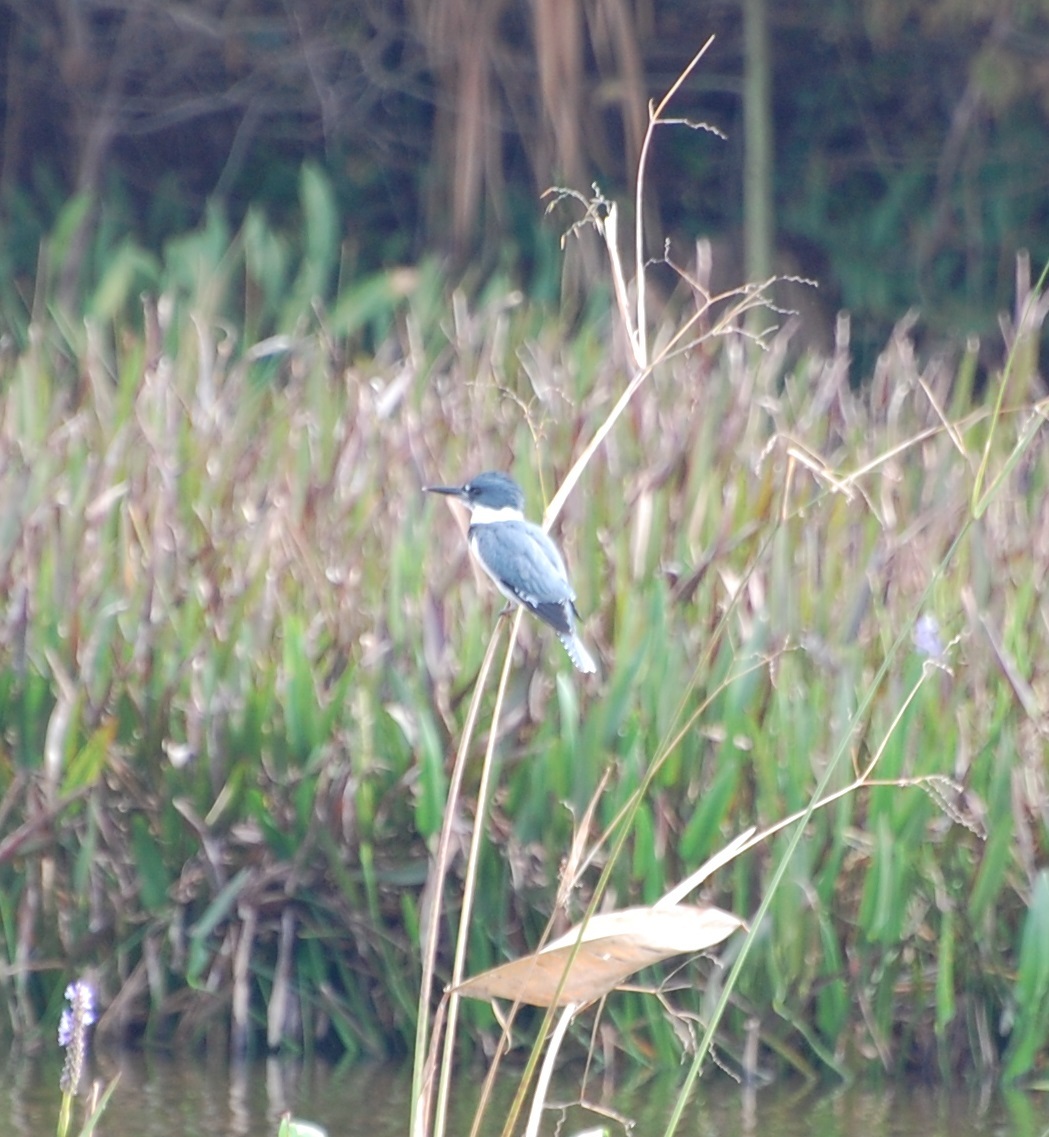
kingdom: Animalia
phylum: Chordata
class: Aves
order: Coraciiformes
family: Alcedinidae
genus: Megaceryle
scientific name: Megaceryle alcyon
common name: Belted kingfisher
